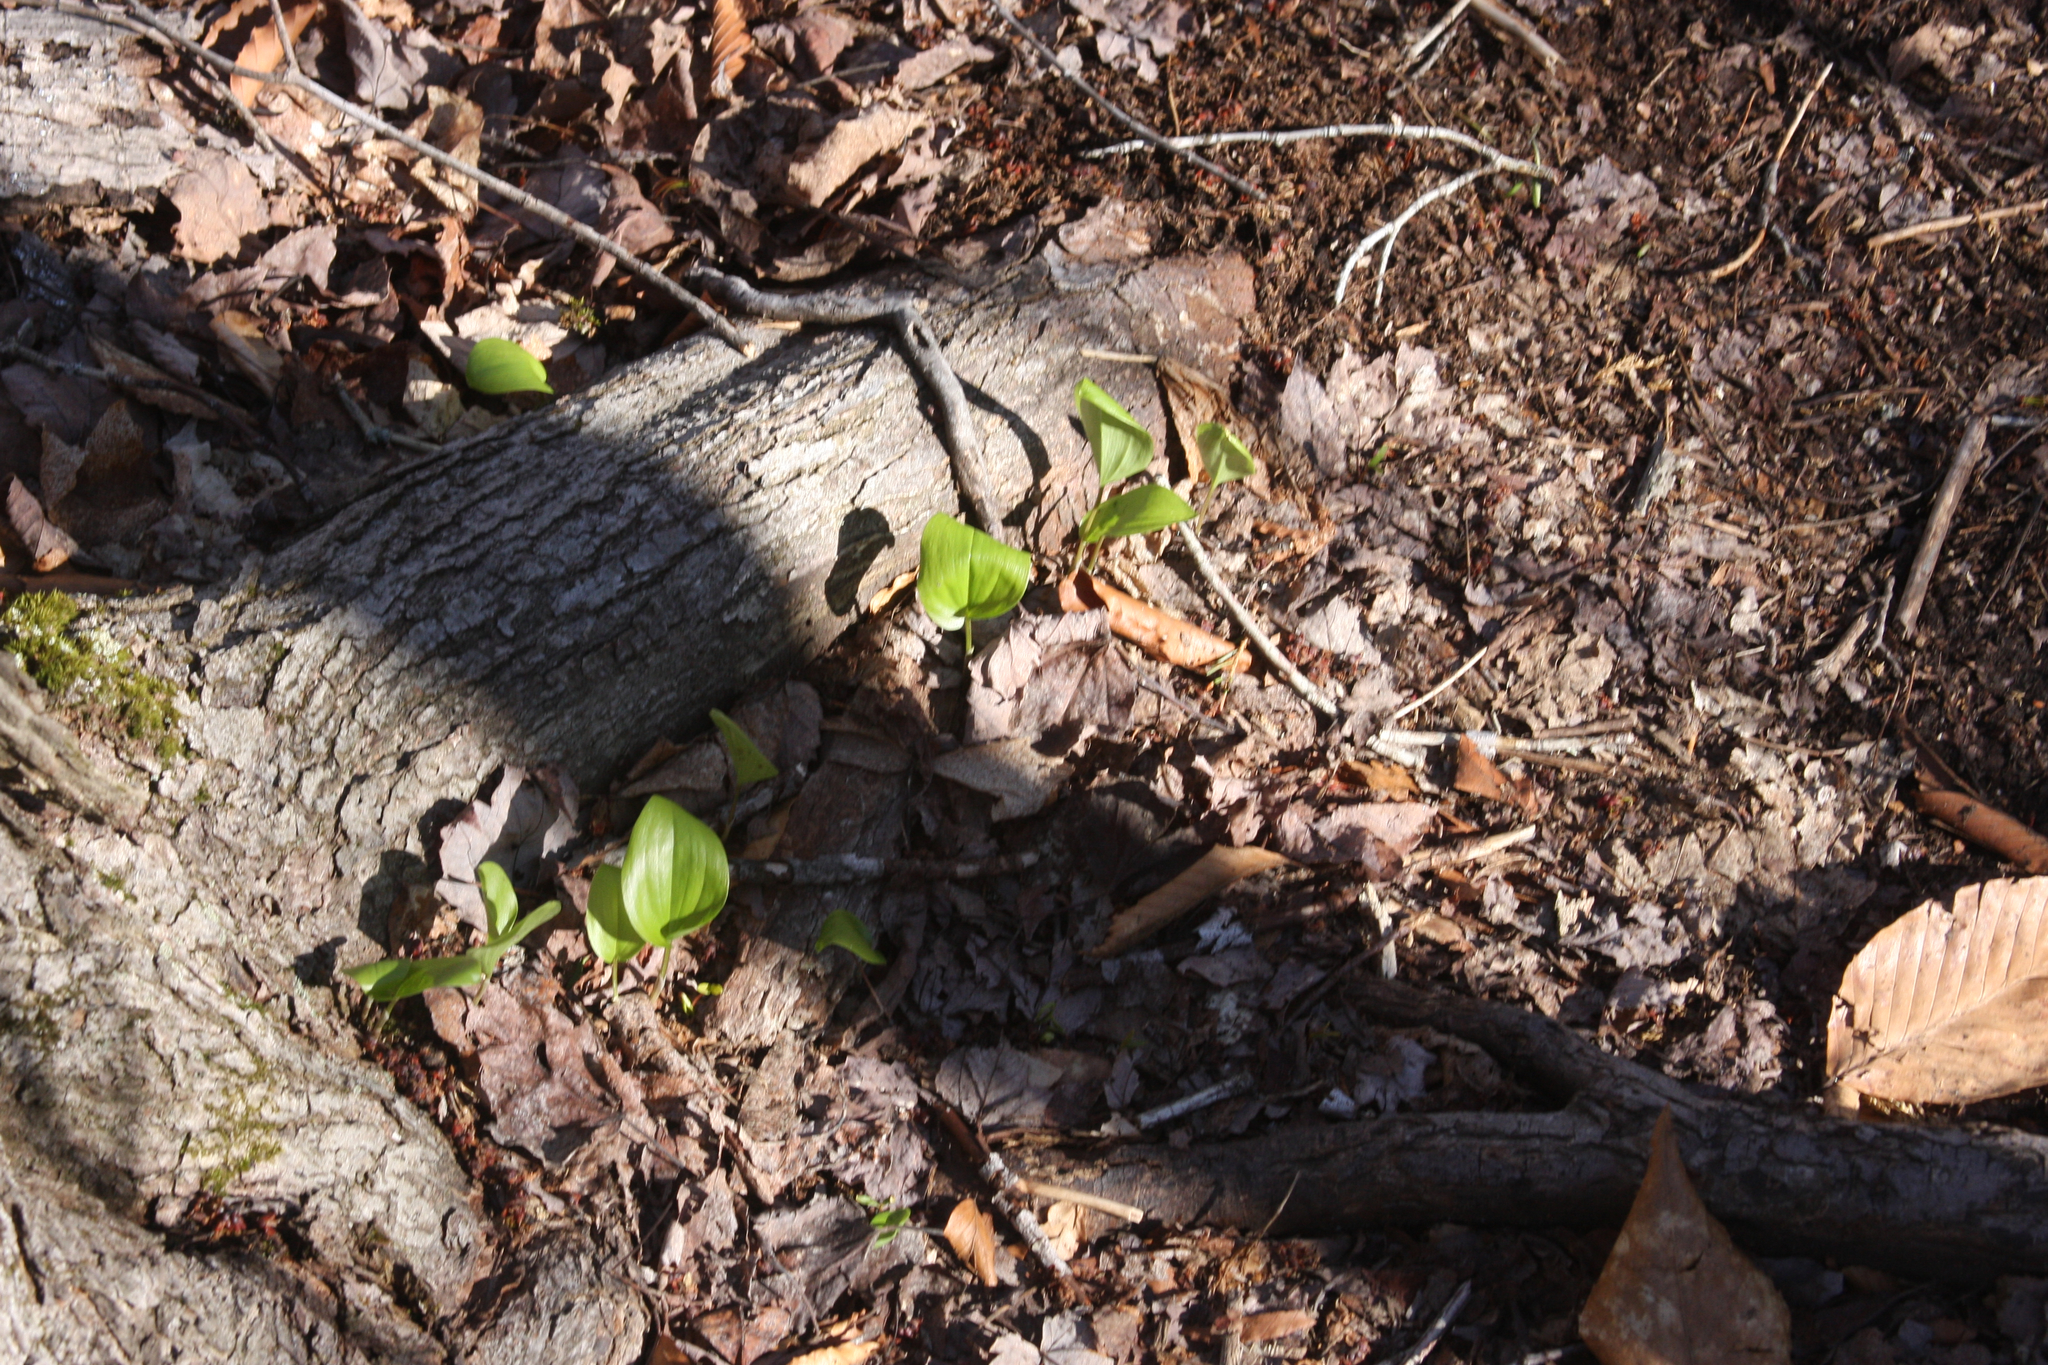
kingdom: Plantae
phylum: Tracheophyta
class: Liliopsida
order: Asparagales
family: Asparagaceae
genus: Maianthemum
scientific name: Maianthemum canadense
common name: False lily-of-the-valley
